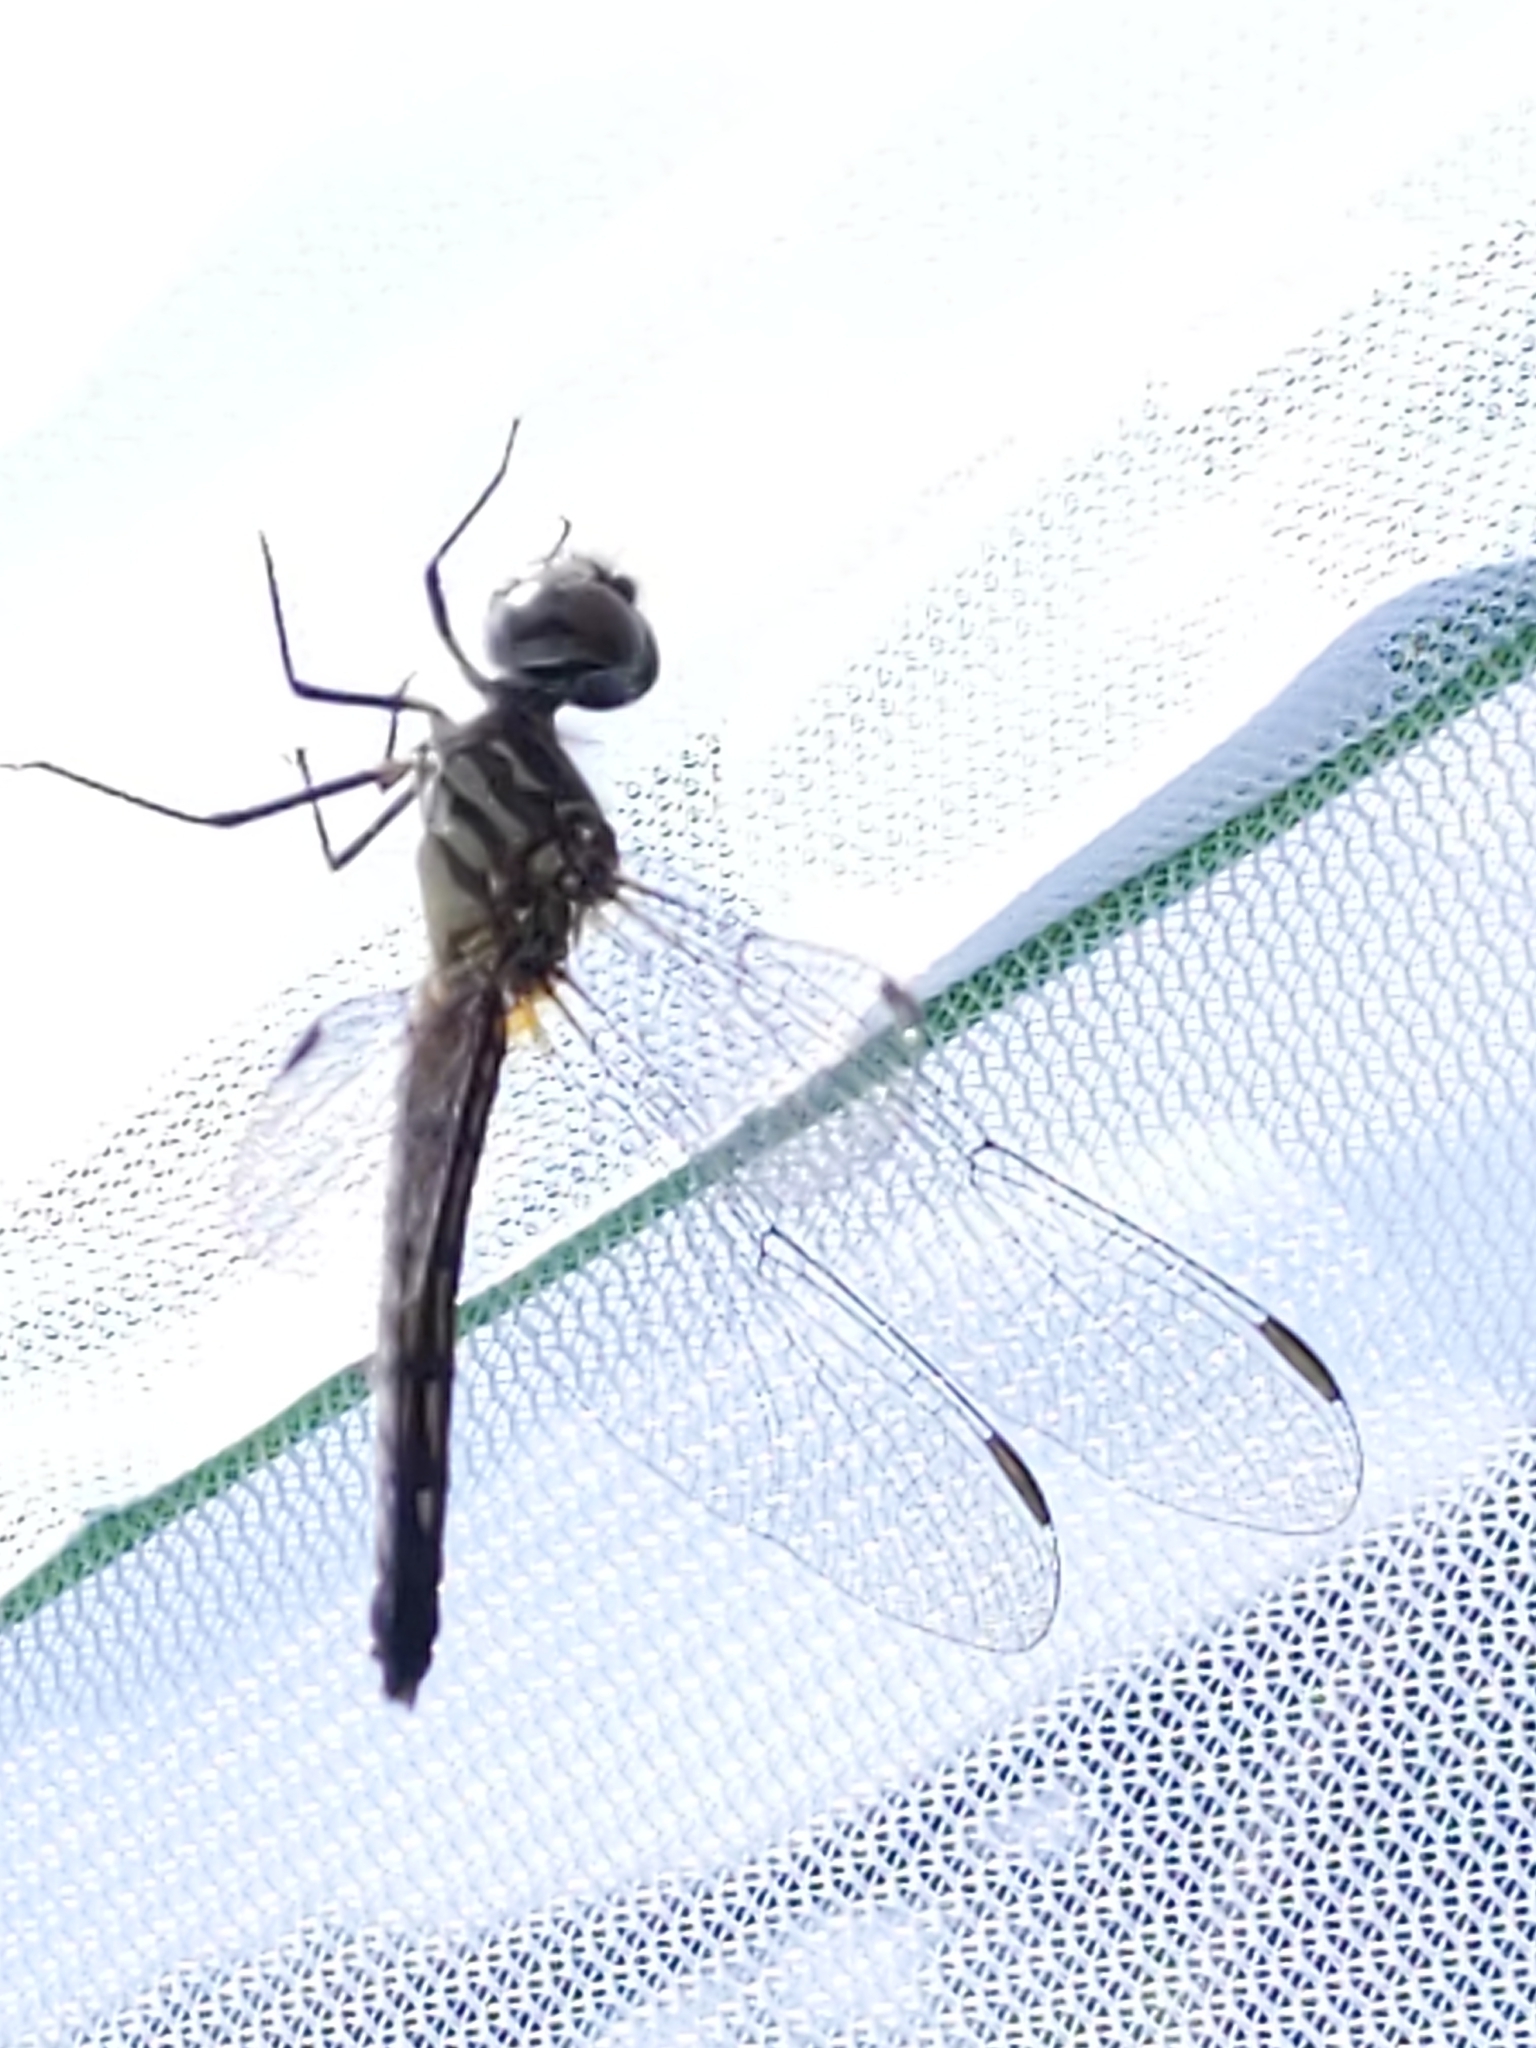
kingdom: Animalia
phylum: Arthropoda
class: Insecta
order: Odonata
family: Libellulidae
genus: Pachydiplax
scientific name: Pachydiplax longipennis
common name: Blue dasher
